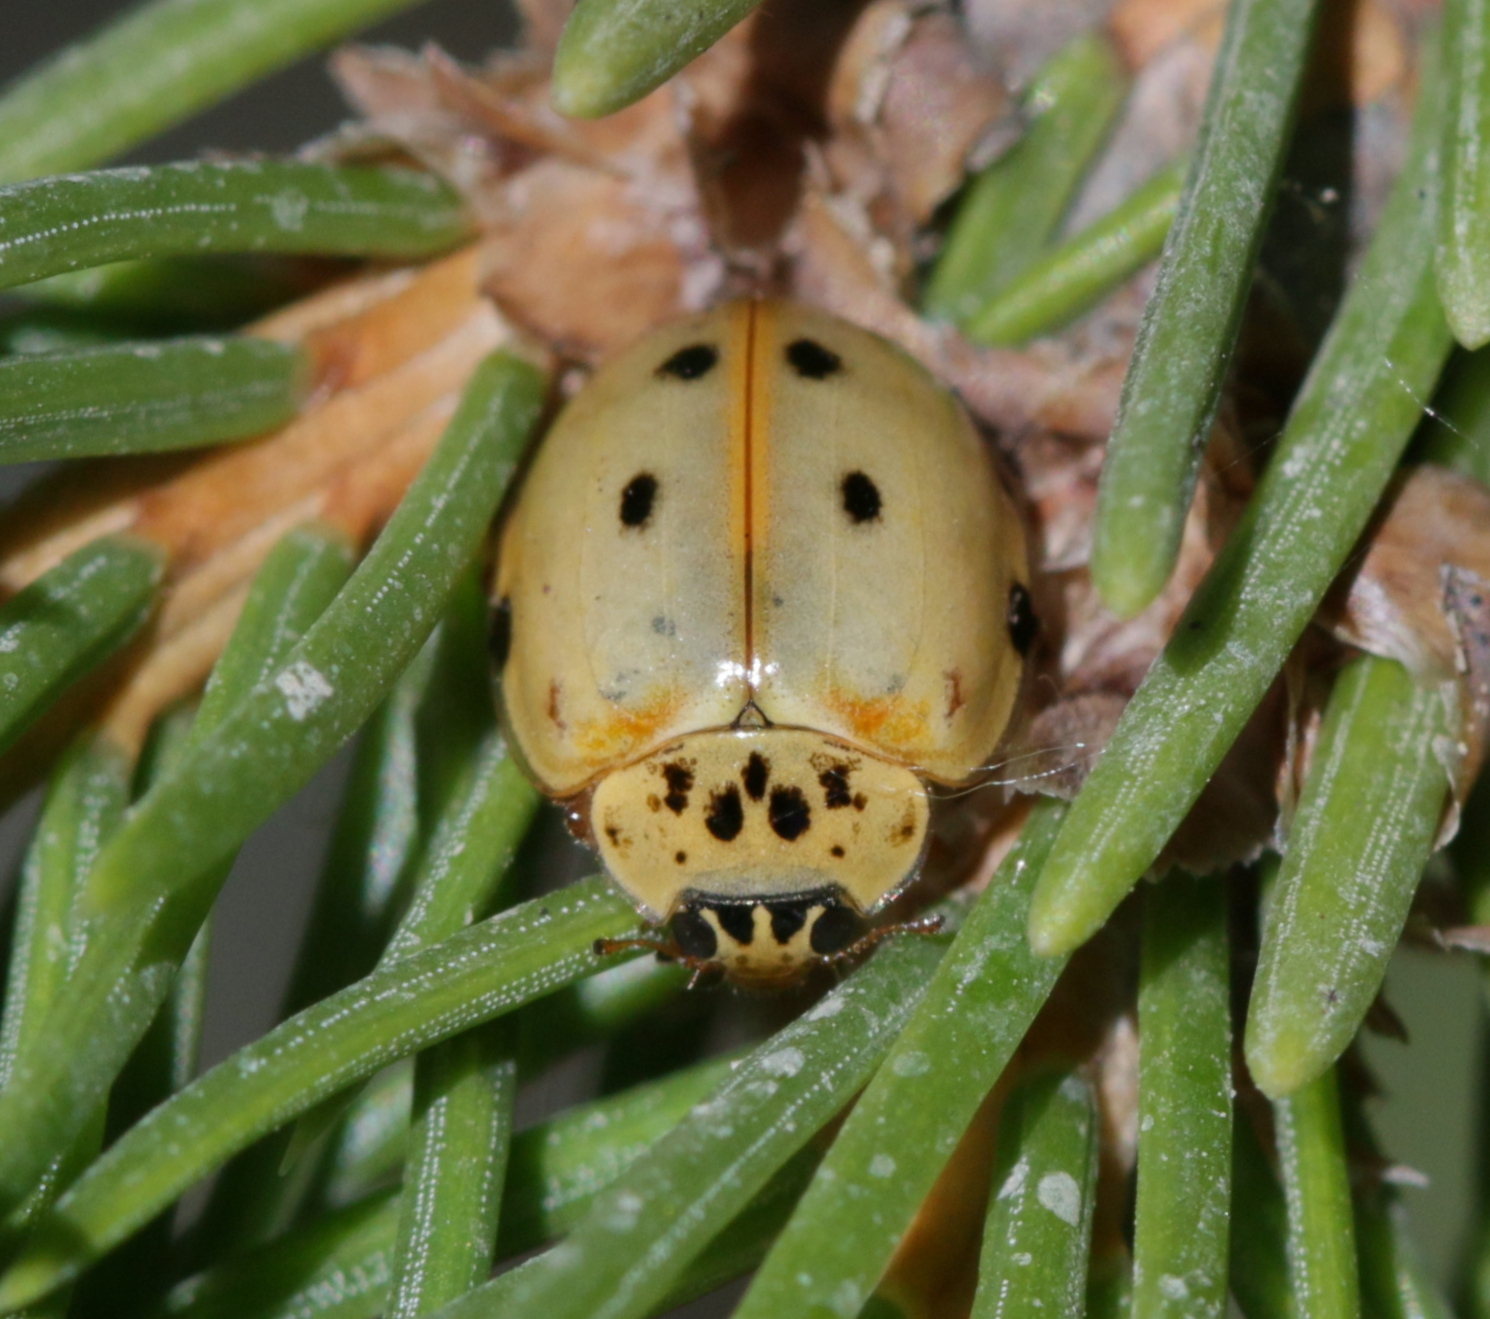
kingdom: Animalia
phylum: Arthropoda
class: Insecta
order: Coleoptera
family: Coccinellidae
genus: Harmonia
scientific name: Harmonia quadripunctata
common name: Cream-streaked ladybird
